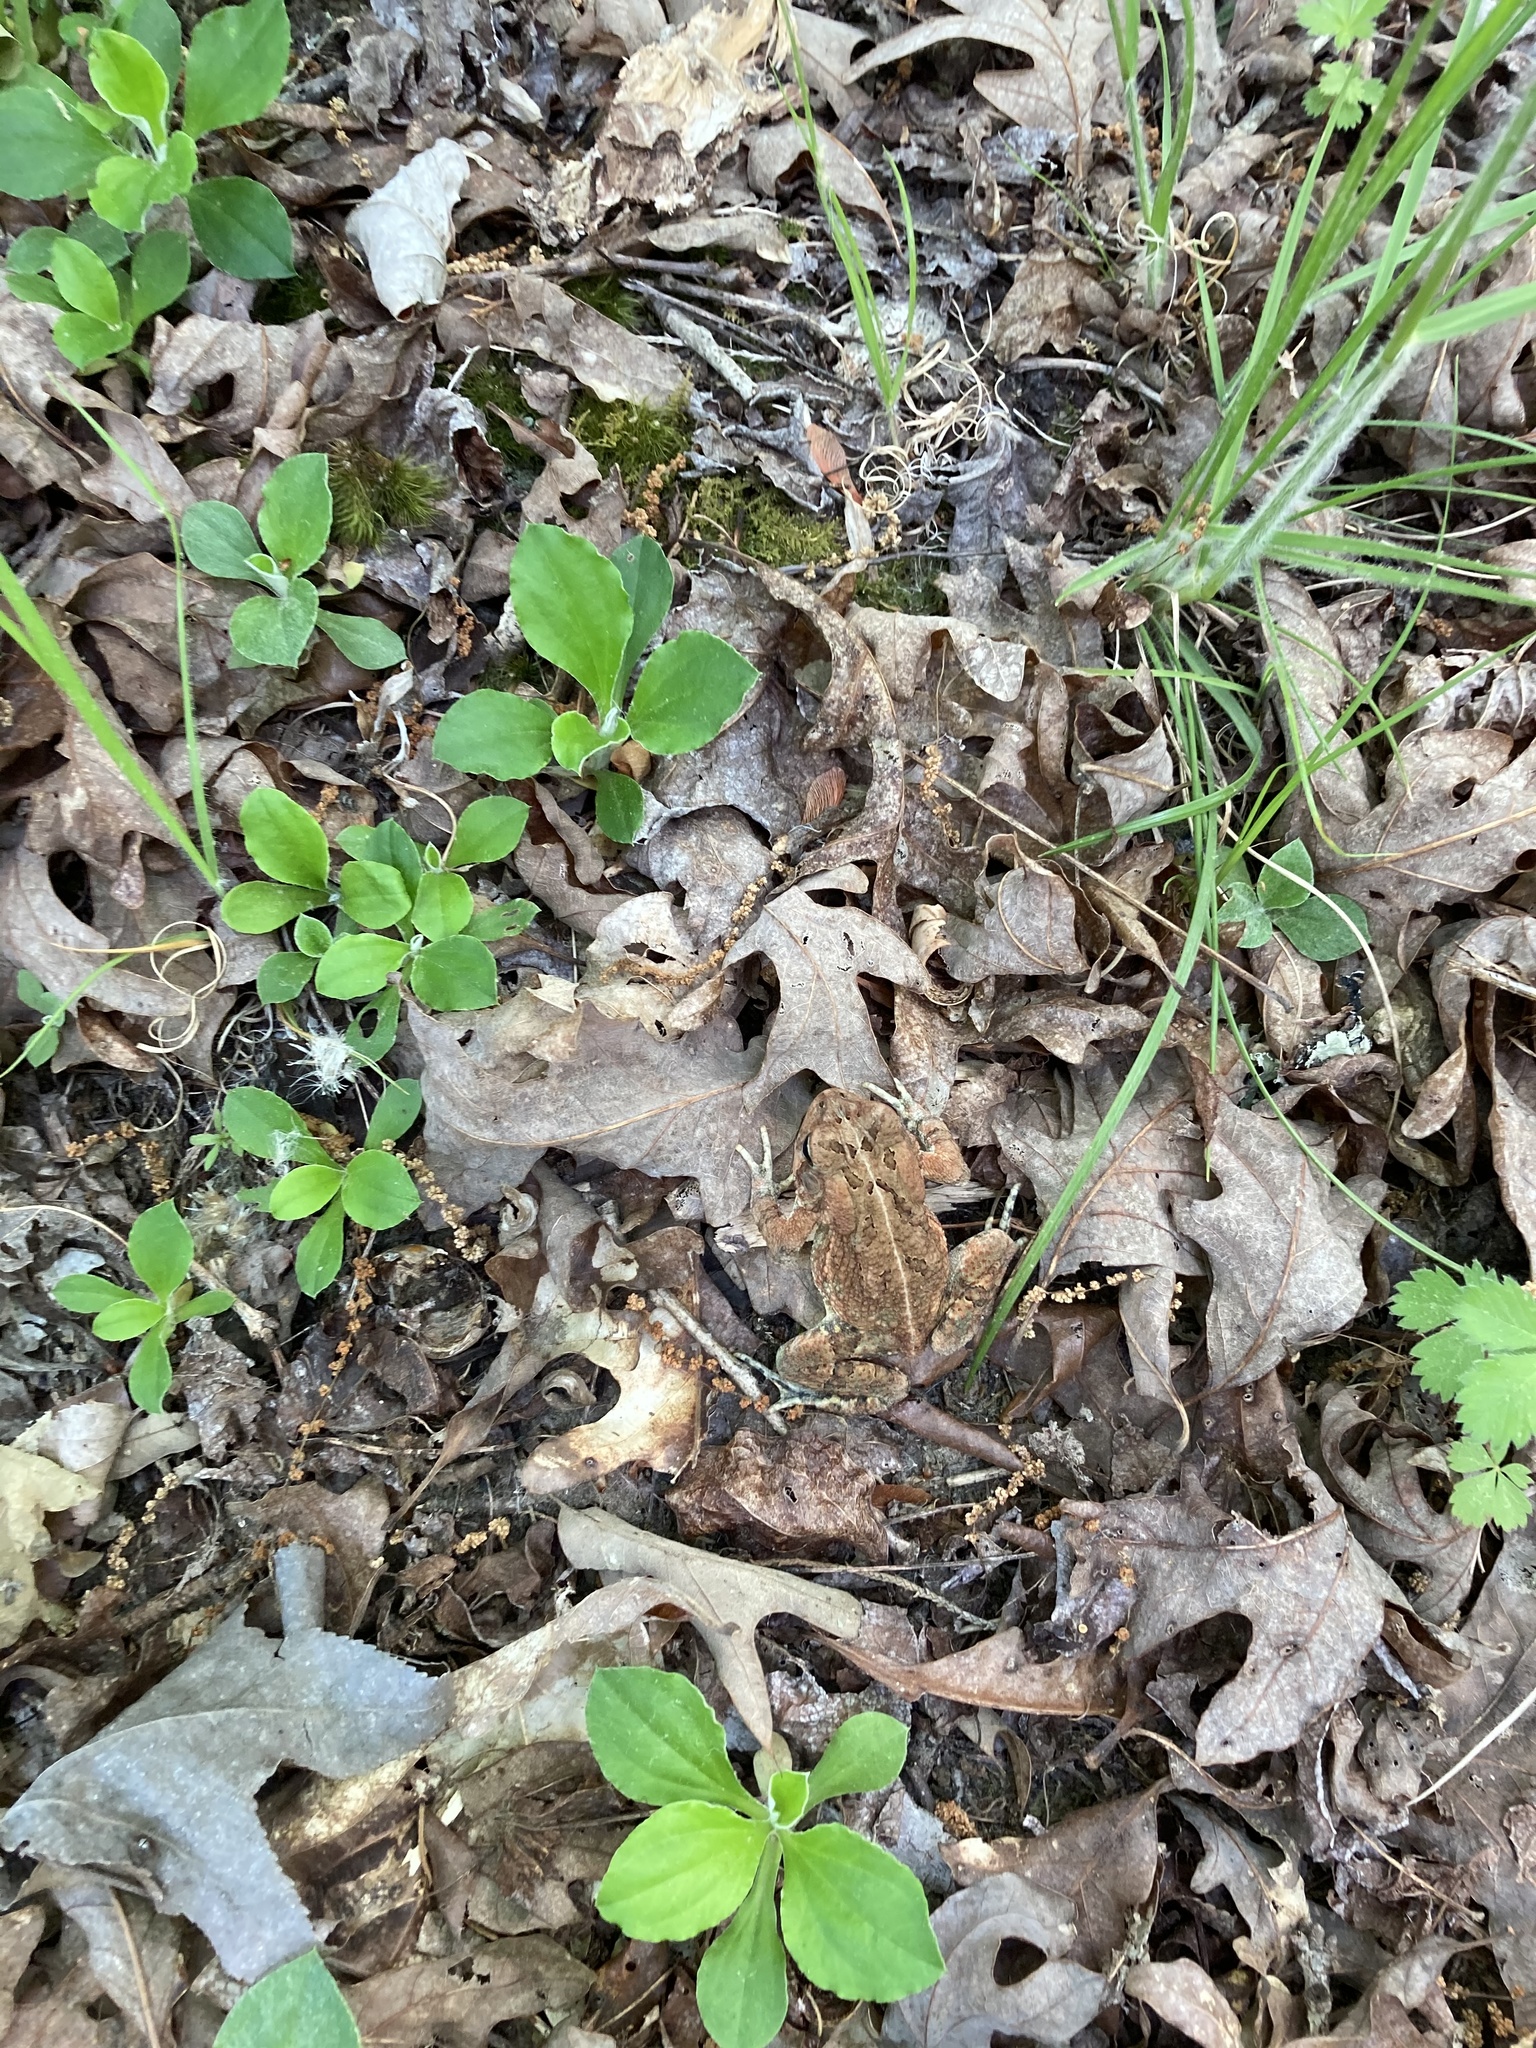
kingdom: Animalia
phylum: Chordata
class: Amphibia
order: Anura
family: Bufonidae
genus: Anaxyrus
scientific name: Anaxyrus fowleri
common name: Fowler's toad
